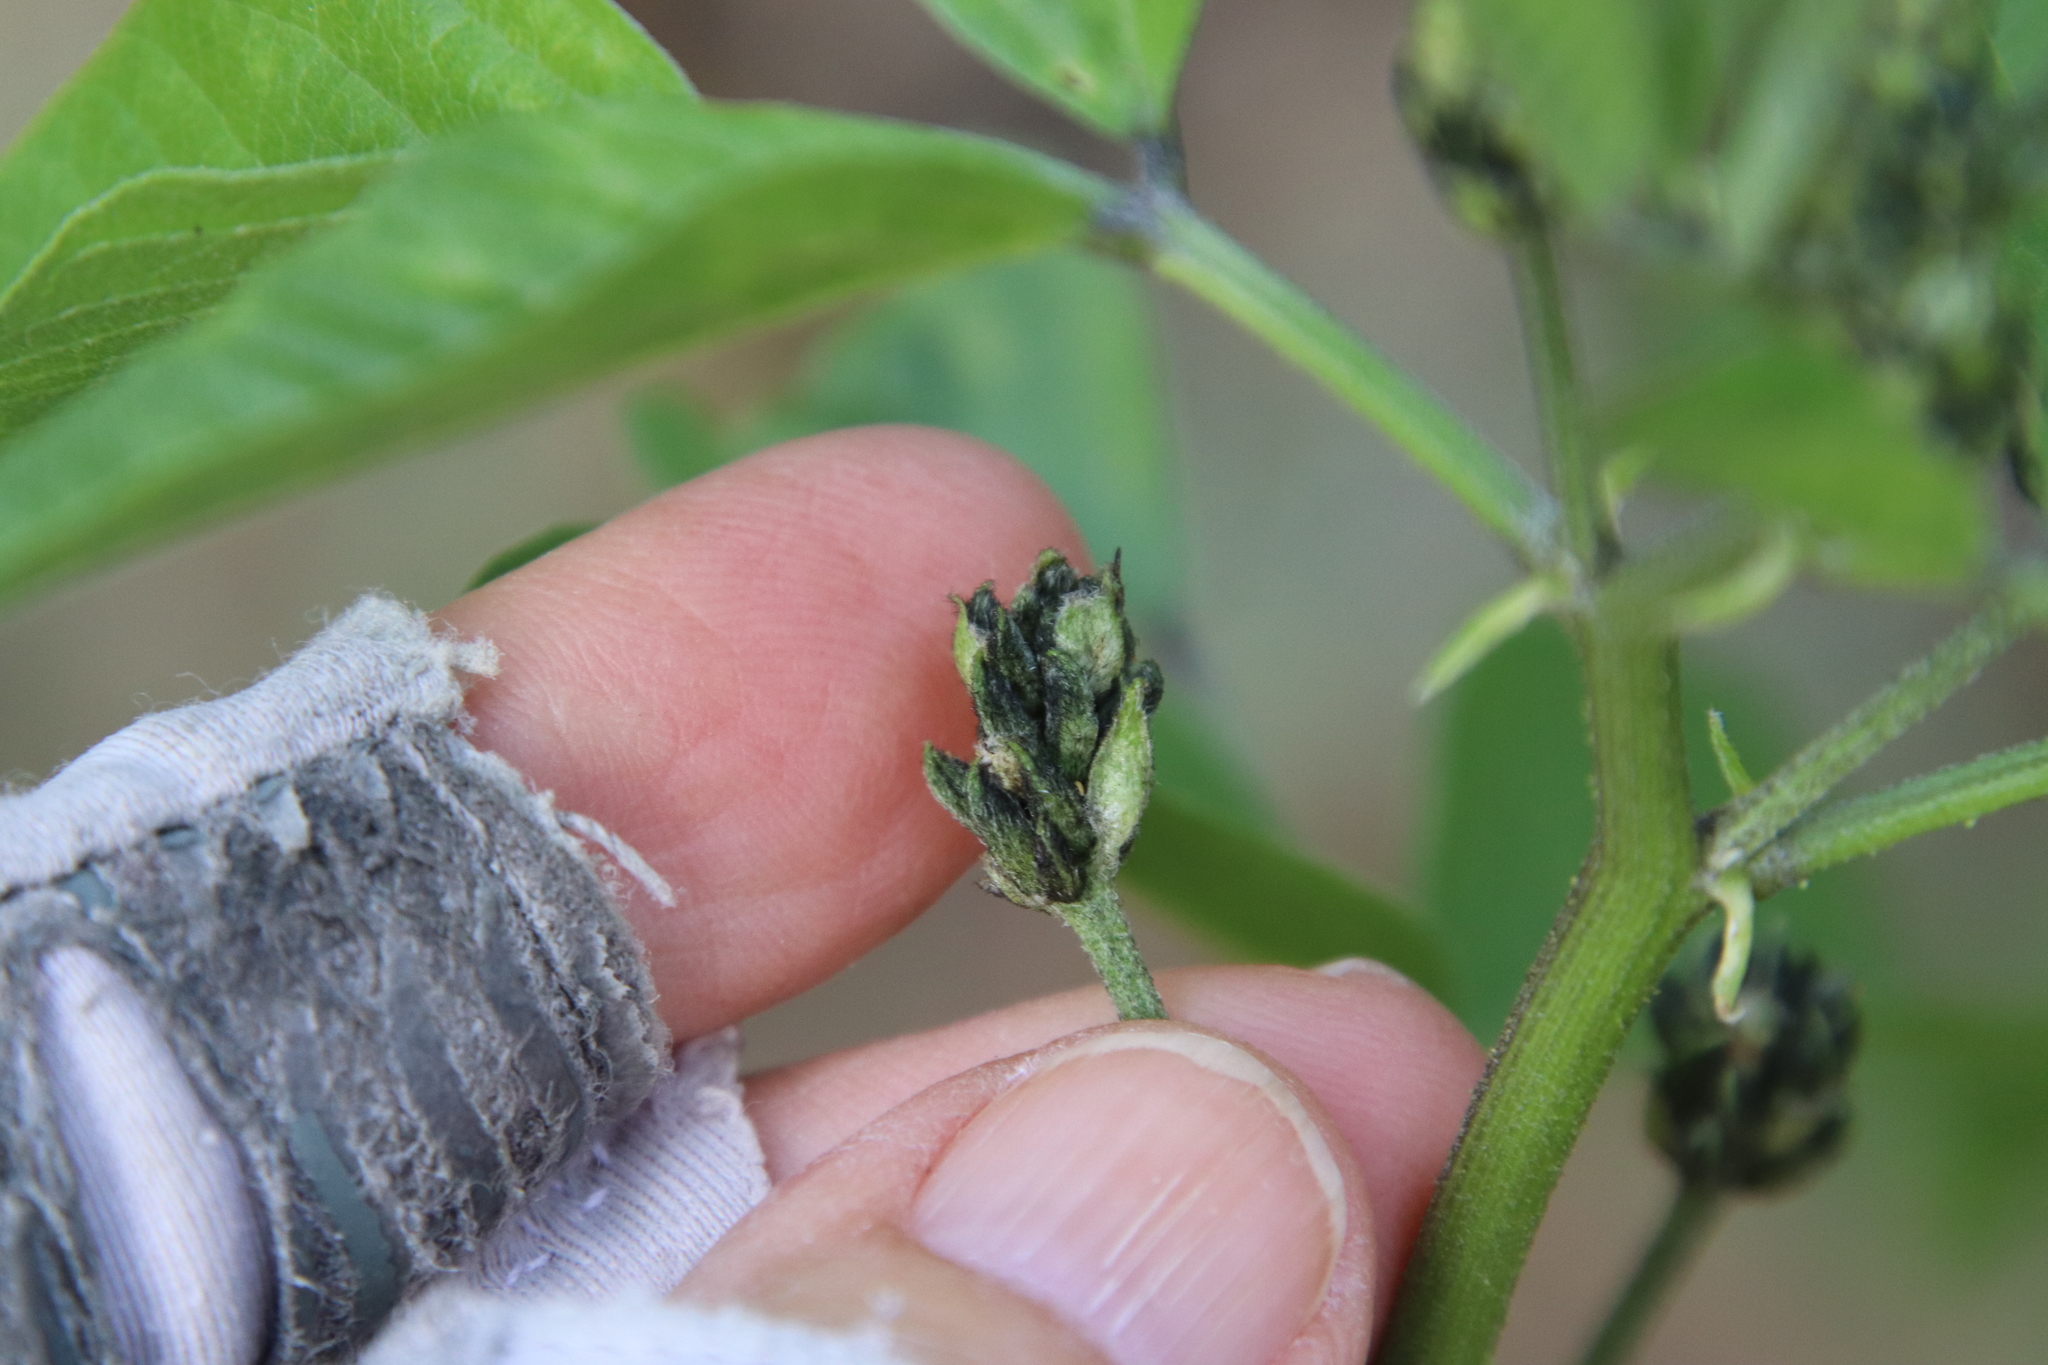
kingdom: Plantae
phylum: Tracheophyta
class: Magnoliopsida
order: Fabales
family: Fabaceae
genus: Hoita
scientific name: Hoita macrostachya
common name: Leatherroot
